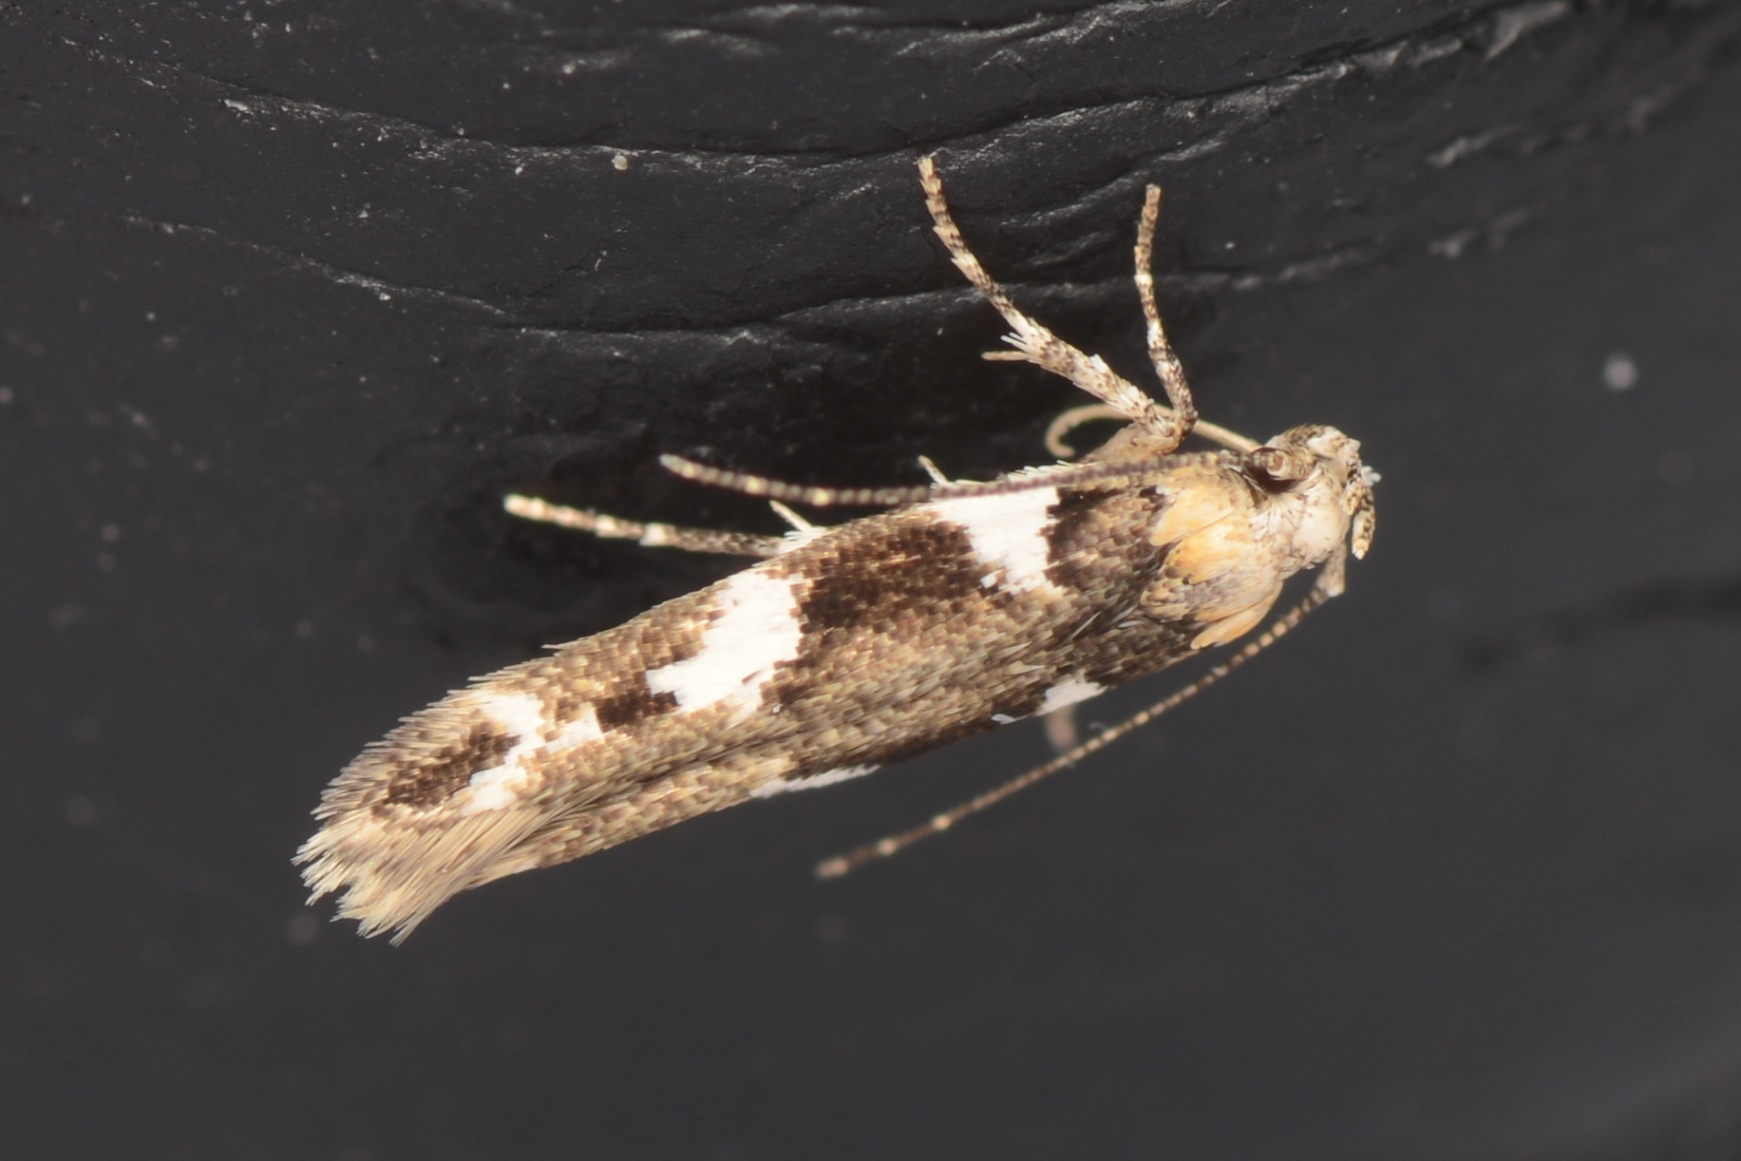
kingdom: Animalia
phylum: Arthropoda
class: Insecta
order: Lepidoptera
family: Cosmopterigidae
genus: Pyroderces
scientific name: Pyroderces deamatella
